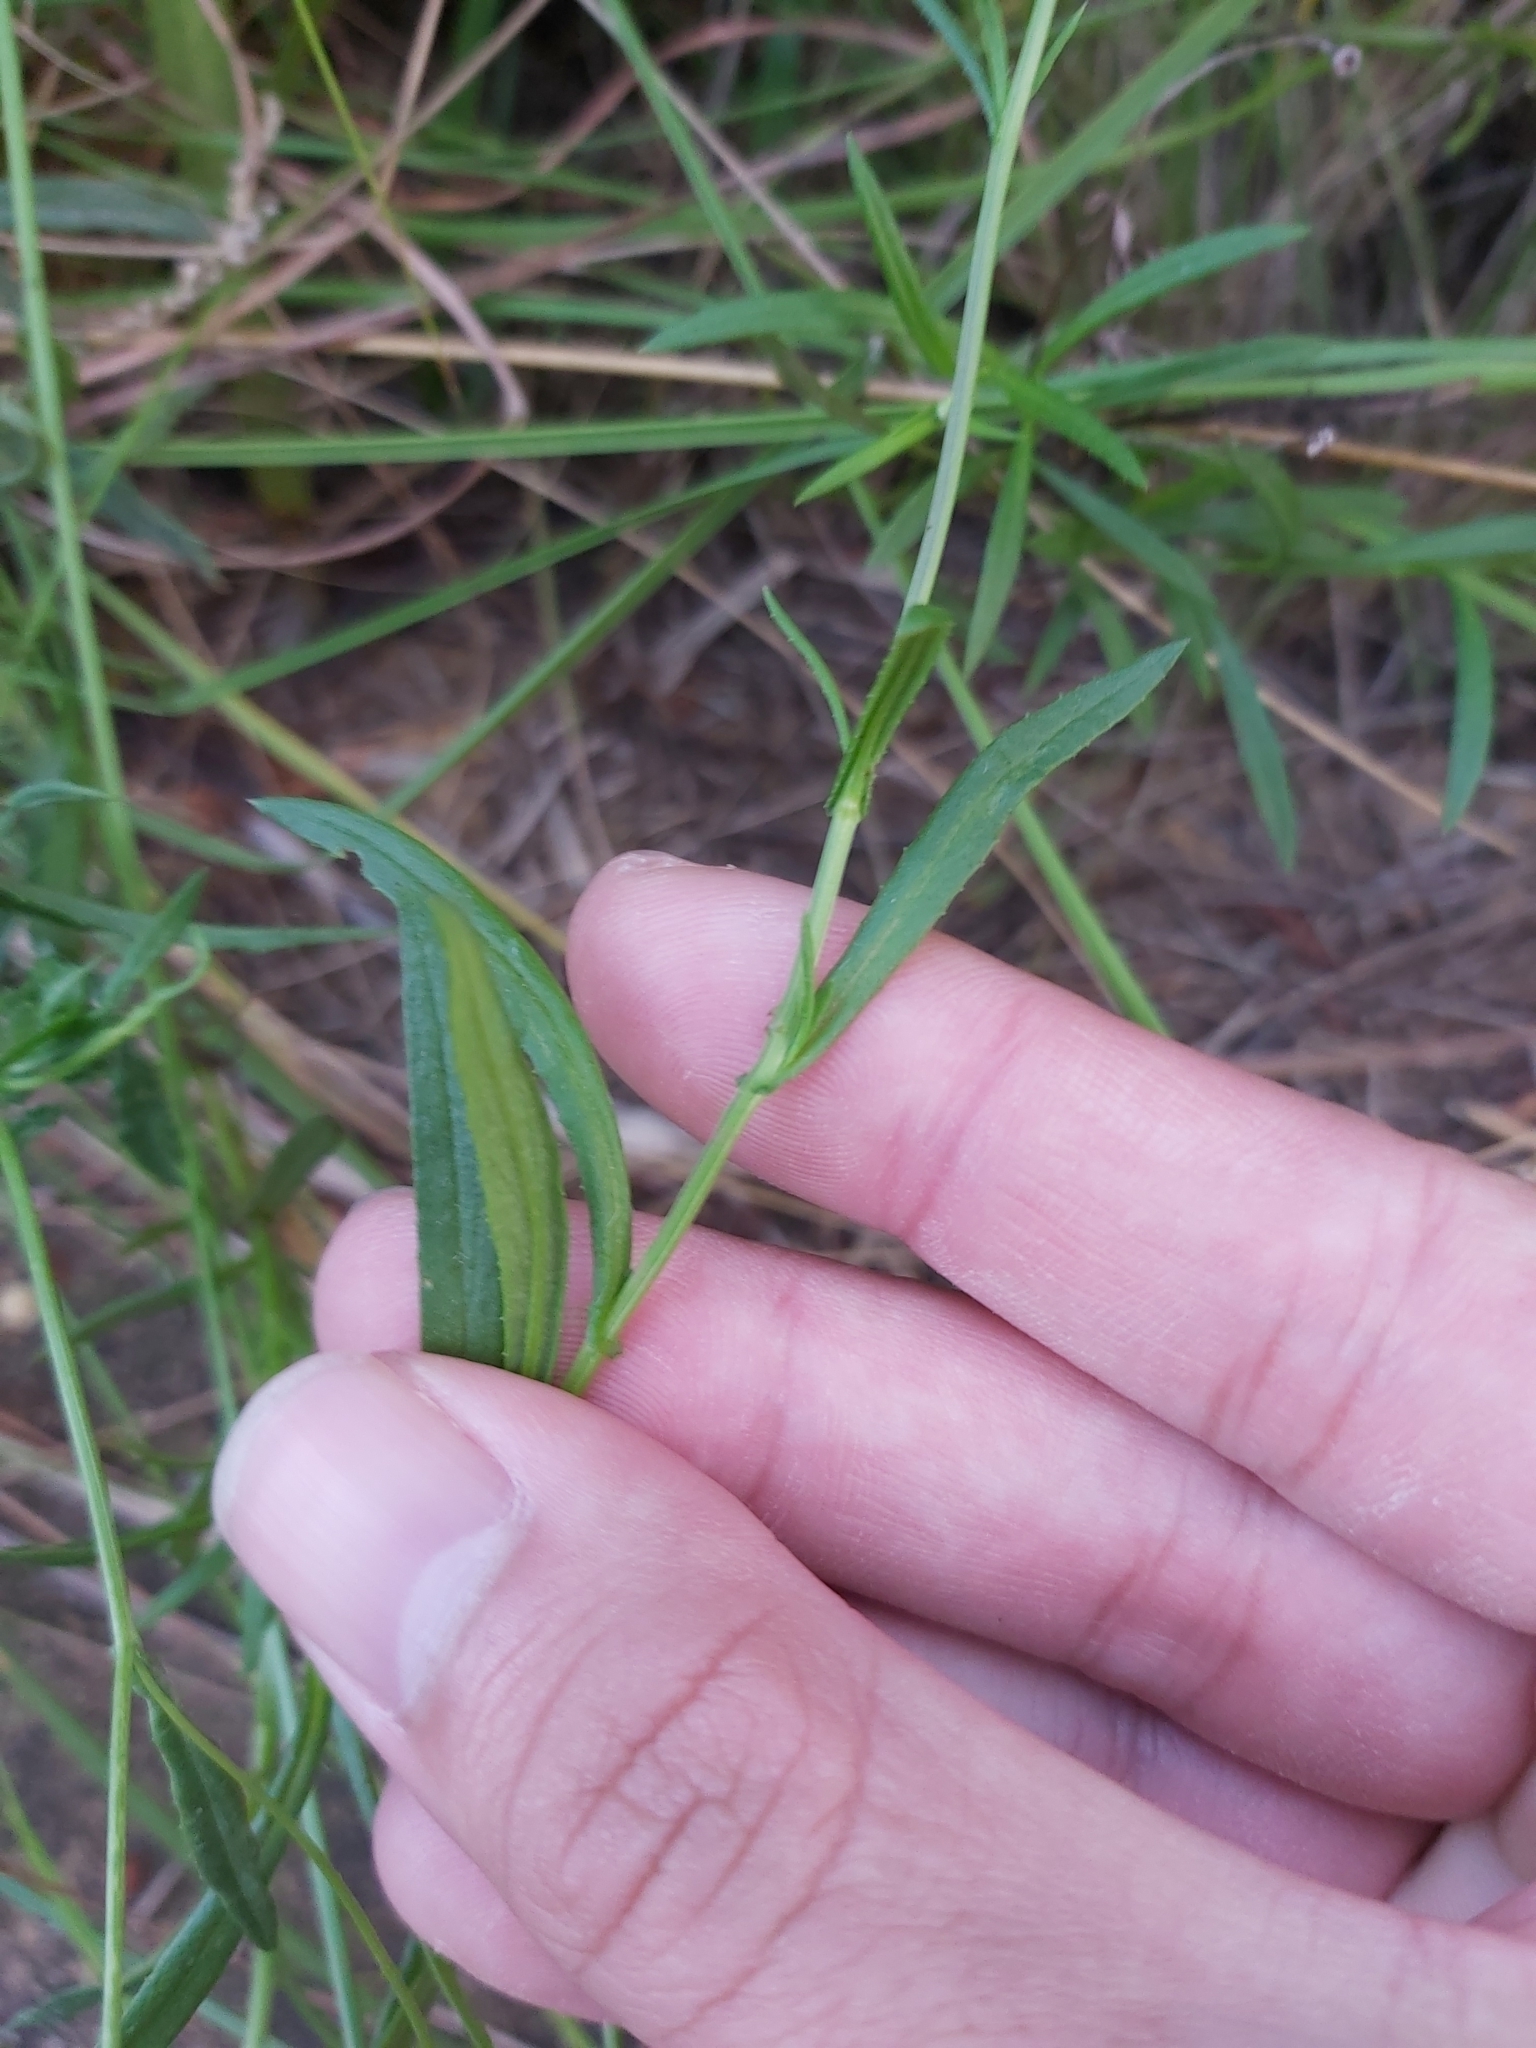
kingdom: Plantae
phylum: Tracheophyta
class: Magnoliopsida
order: Asterales
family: Asteraceae
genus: Senecio
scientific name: Senecio madagascariensis
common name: Madagascar ragwort
